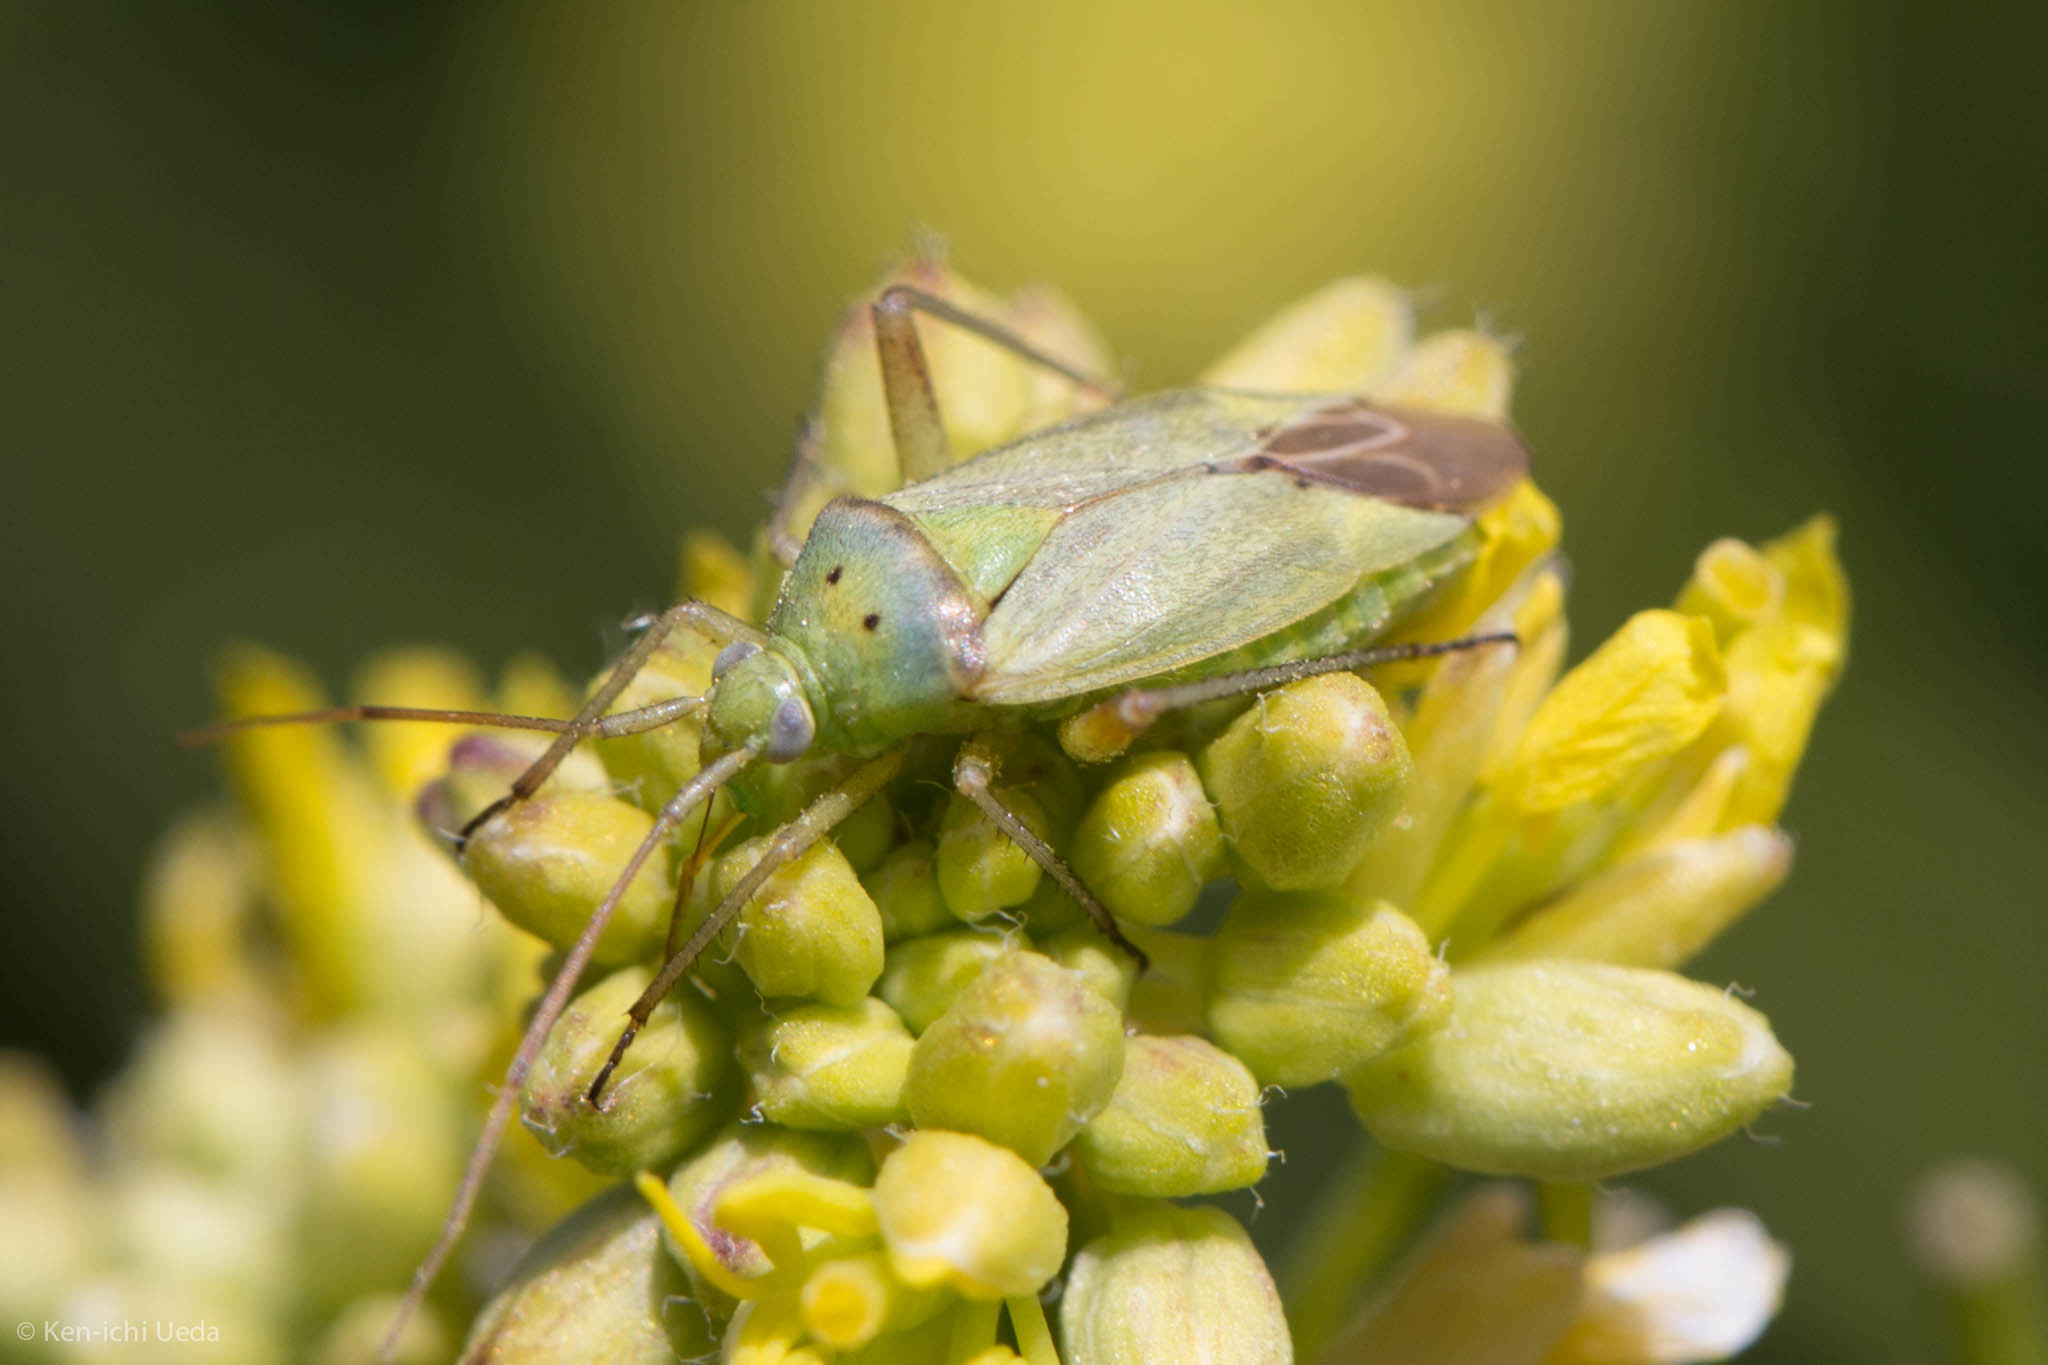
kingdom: Animalia
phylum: Arthropoda
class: Insecta
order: Hemiptera
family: Miridae
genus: Closterotomus
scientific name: Closterotomus norvegicus
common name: Plant bug
